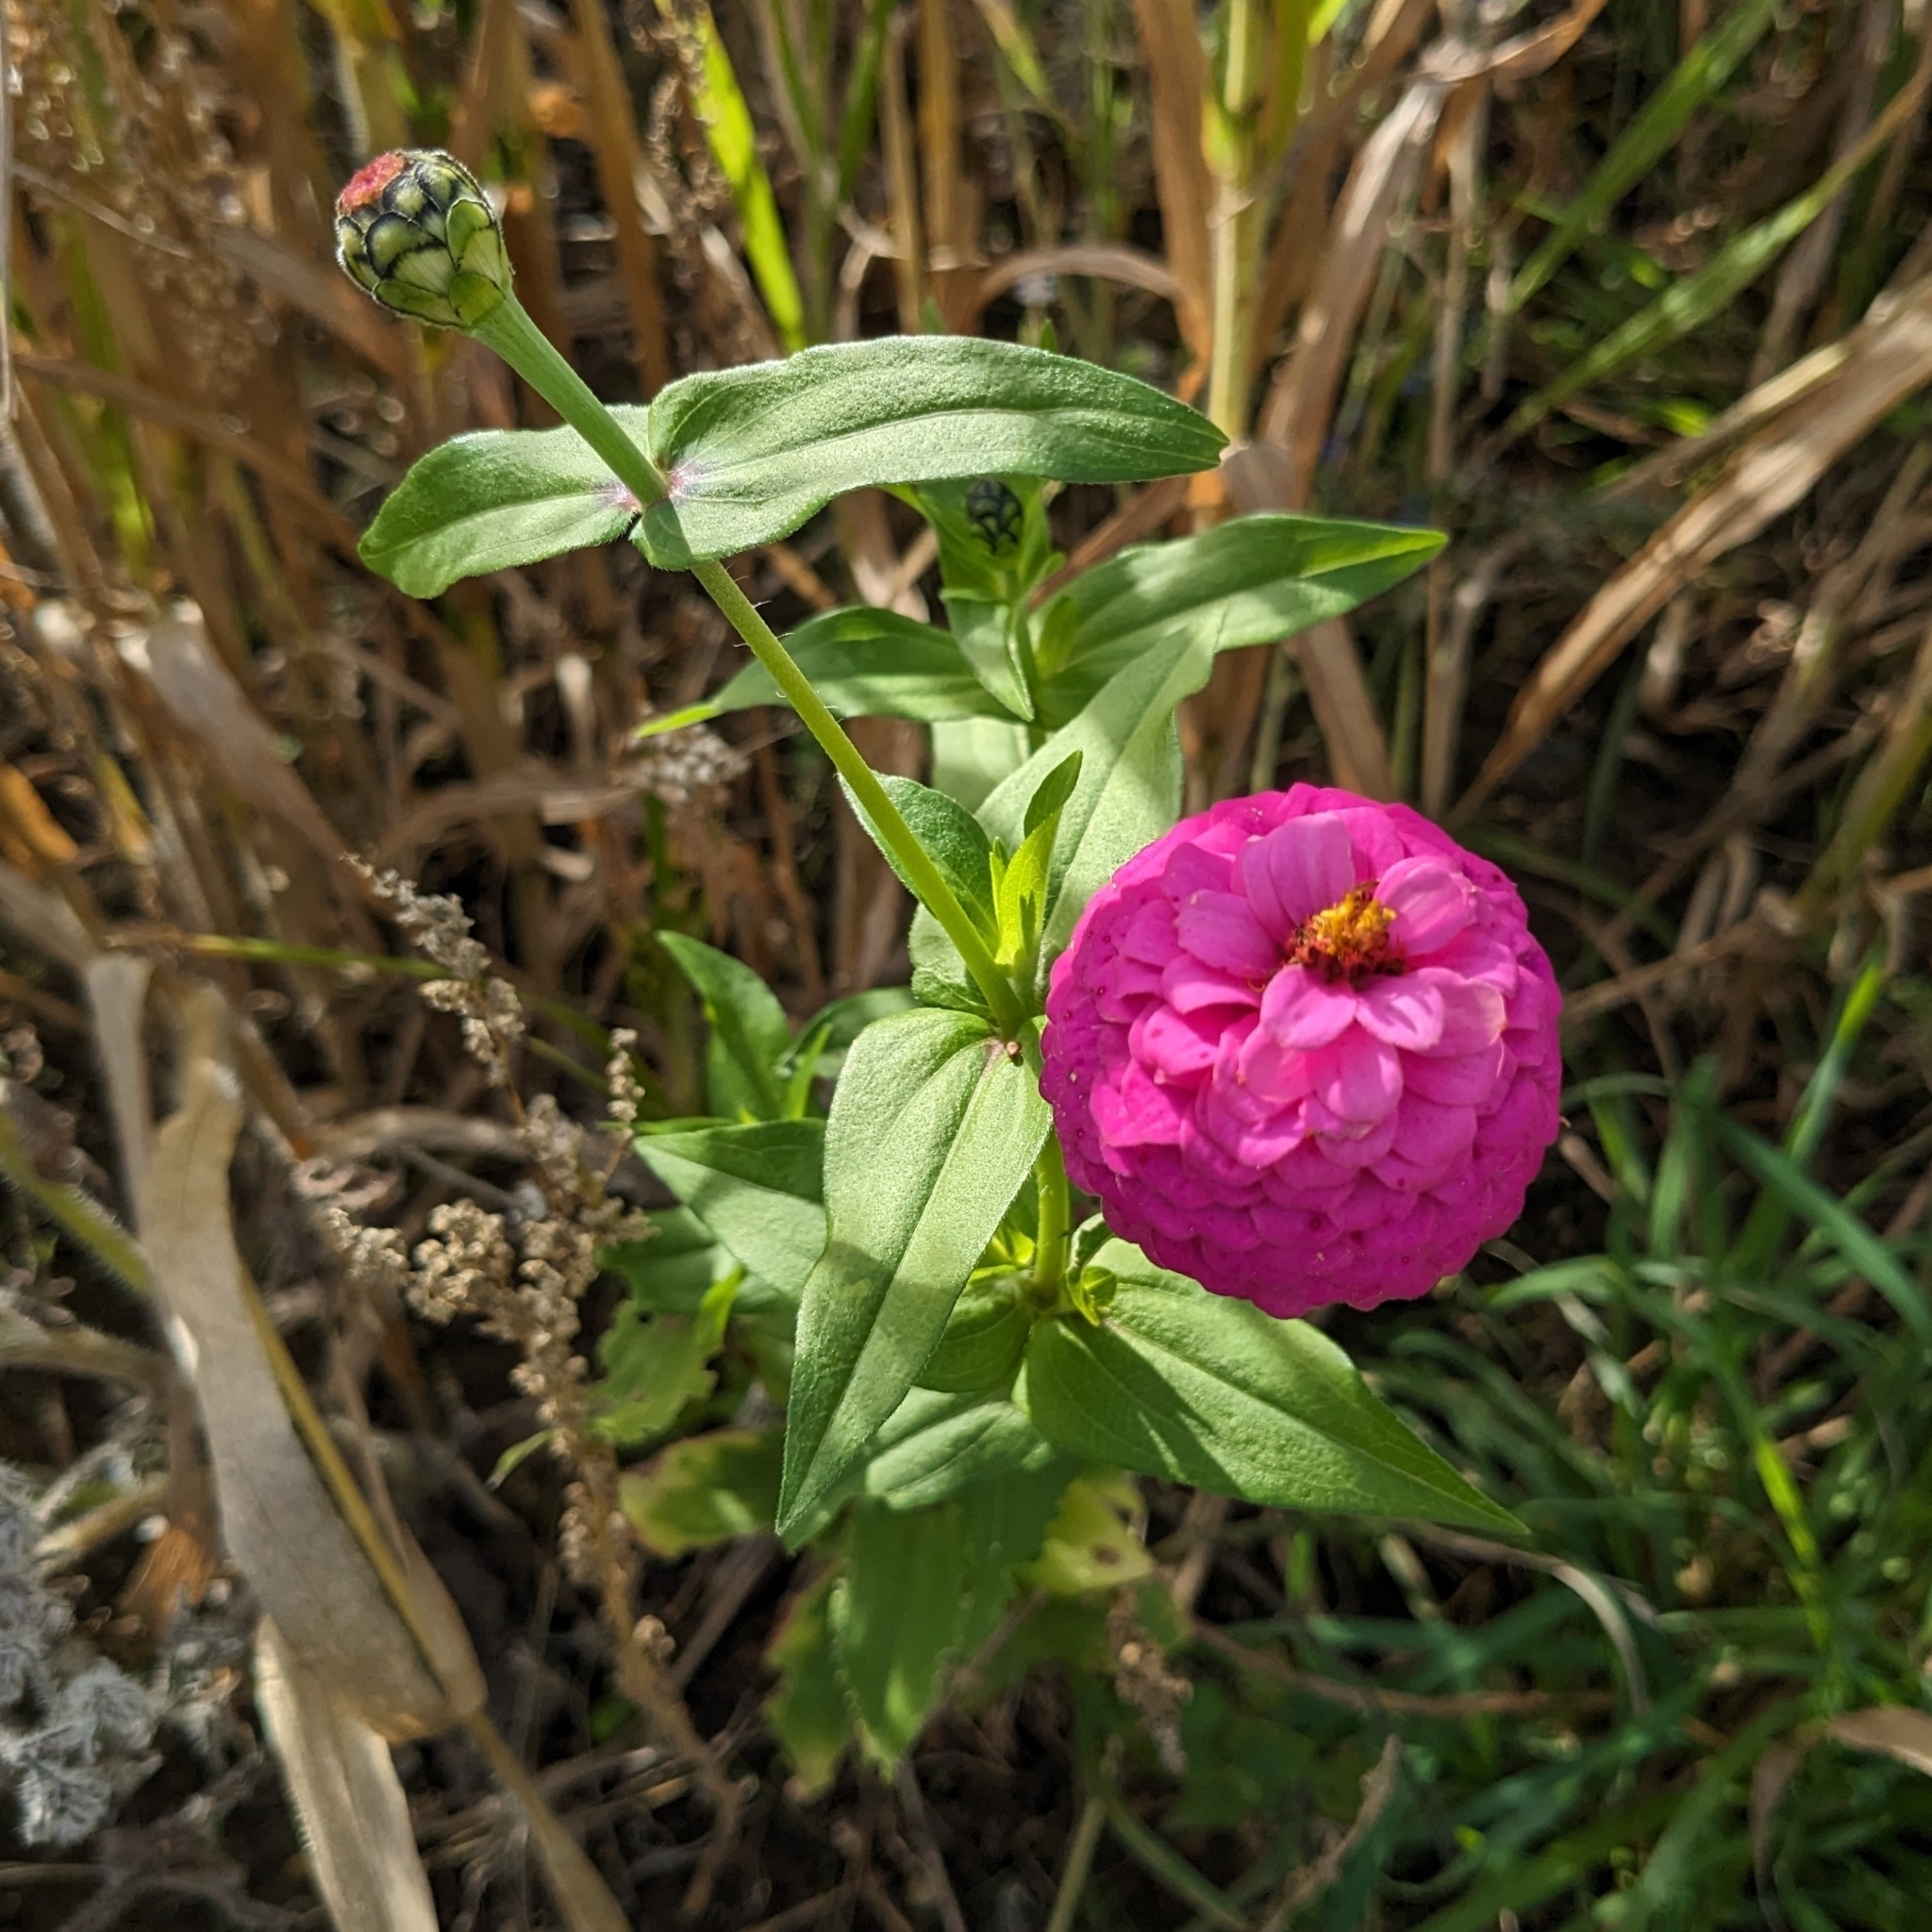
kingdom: Plantae
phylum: Tracheophyta
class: Magnoliopsida
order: Asterales
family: Asteraceae
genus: Zinnia
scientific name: Zinnia elegans
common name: Youth-and-age
